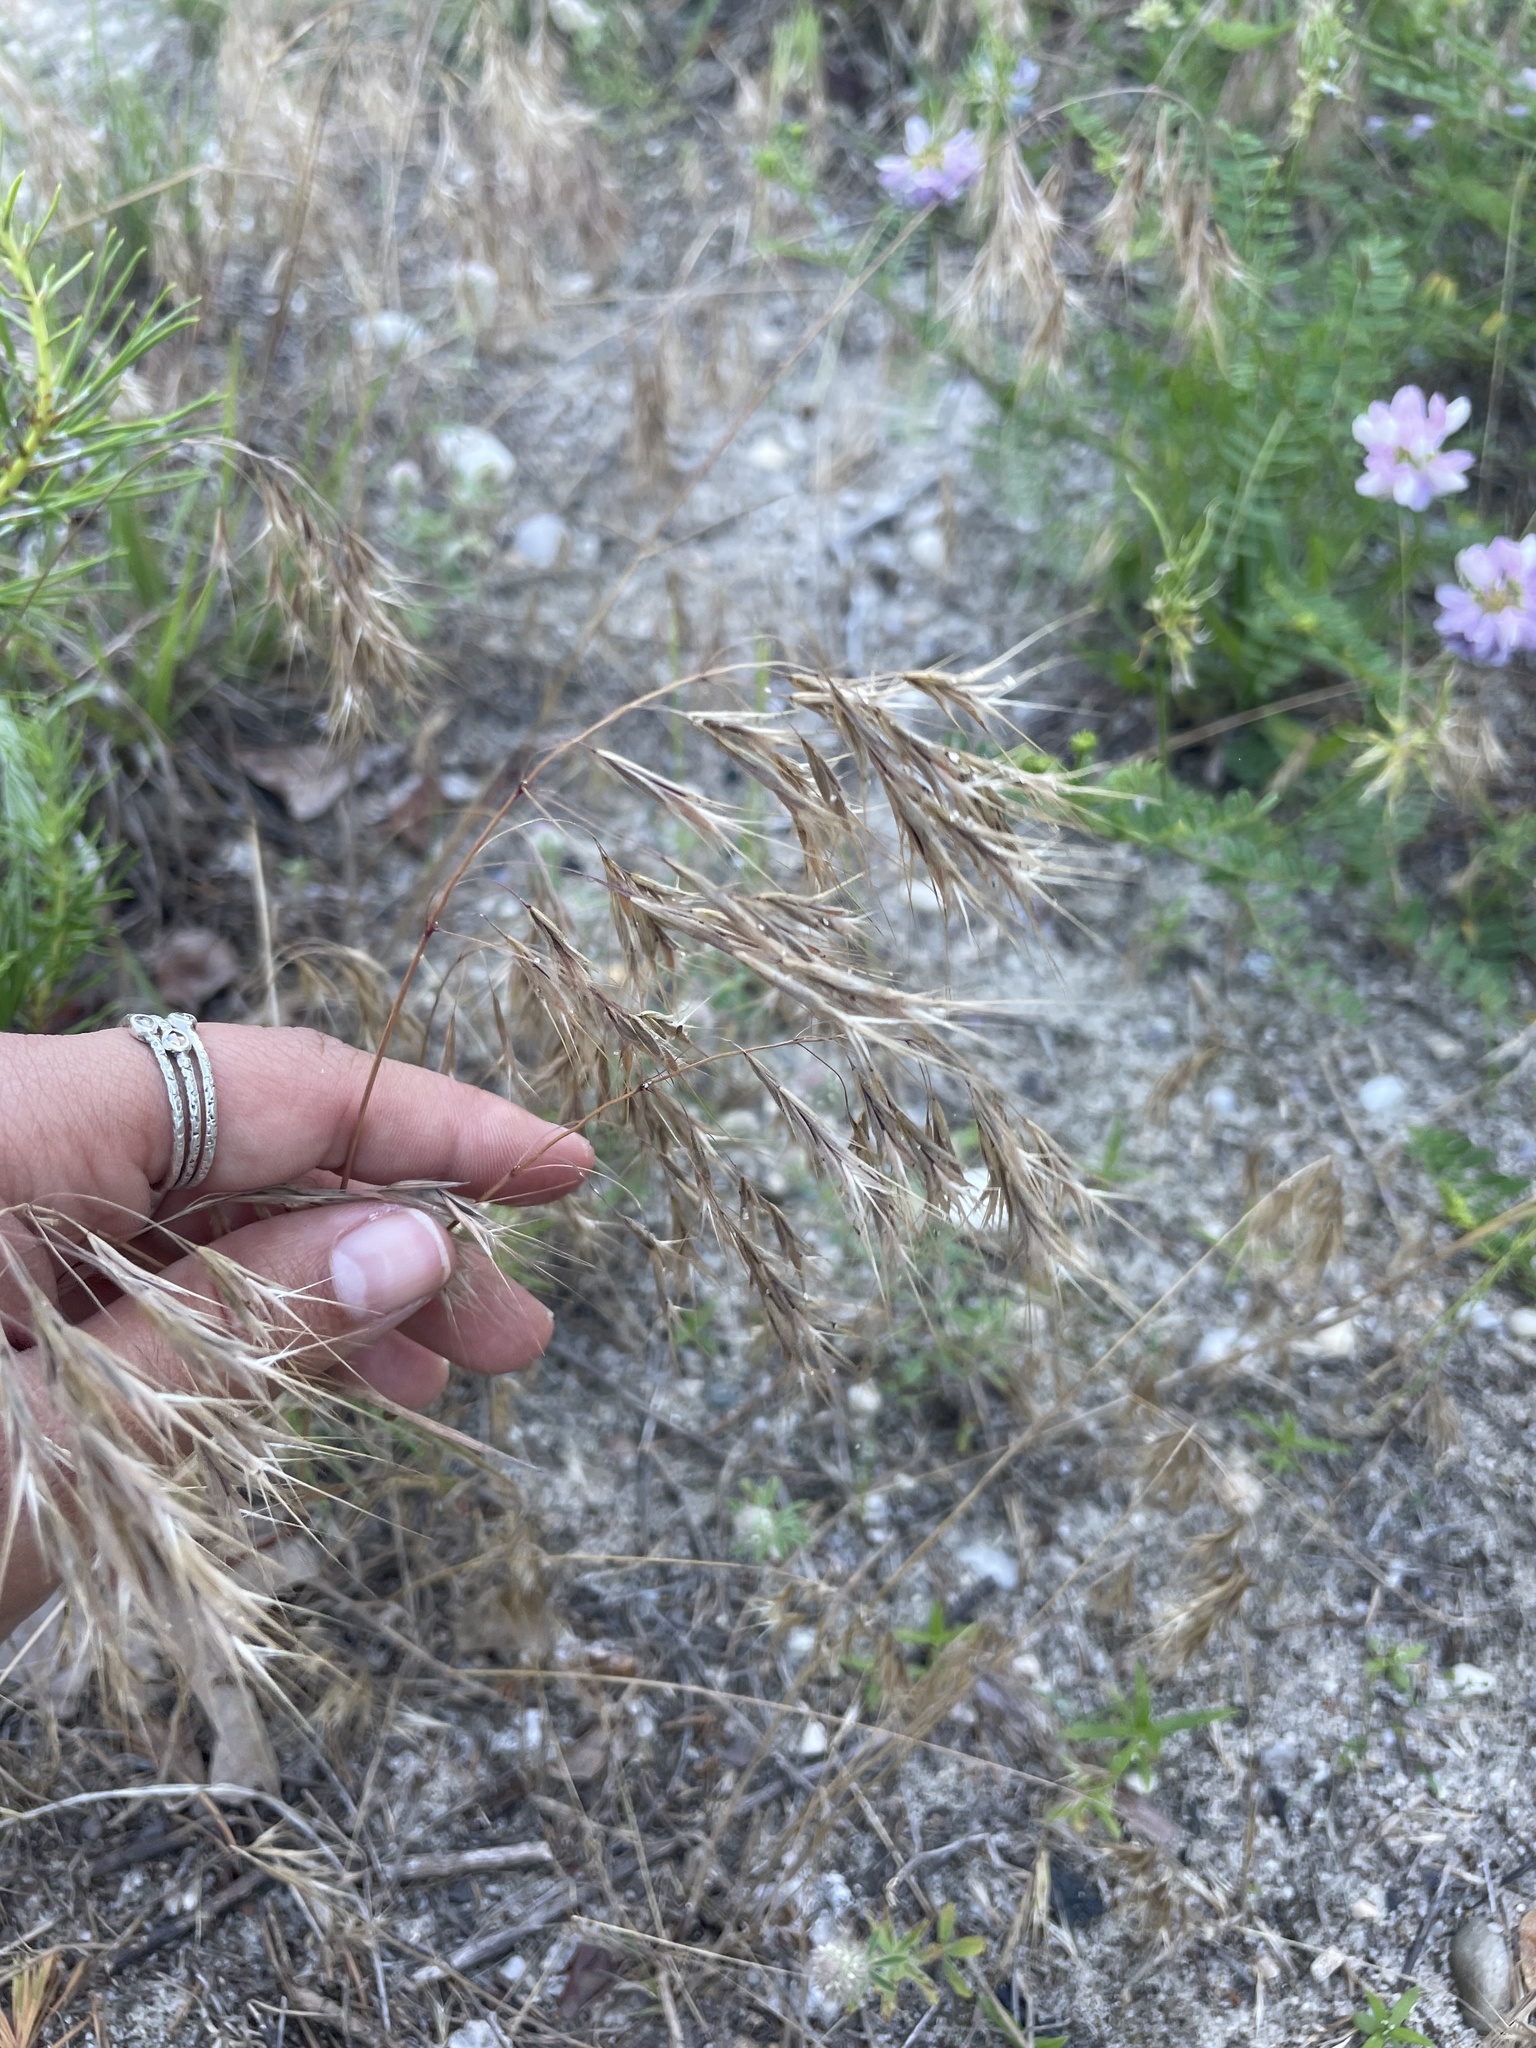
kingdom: Plantae
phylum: Tracheophyta
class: Liliopsida
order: Poales
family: Poaceae
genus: Bromus
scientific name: Bromus tectorum
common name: Cheatgrass
